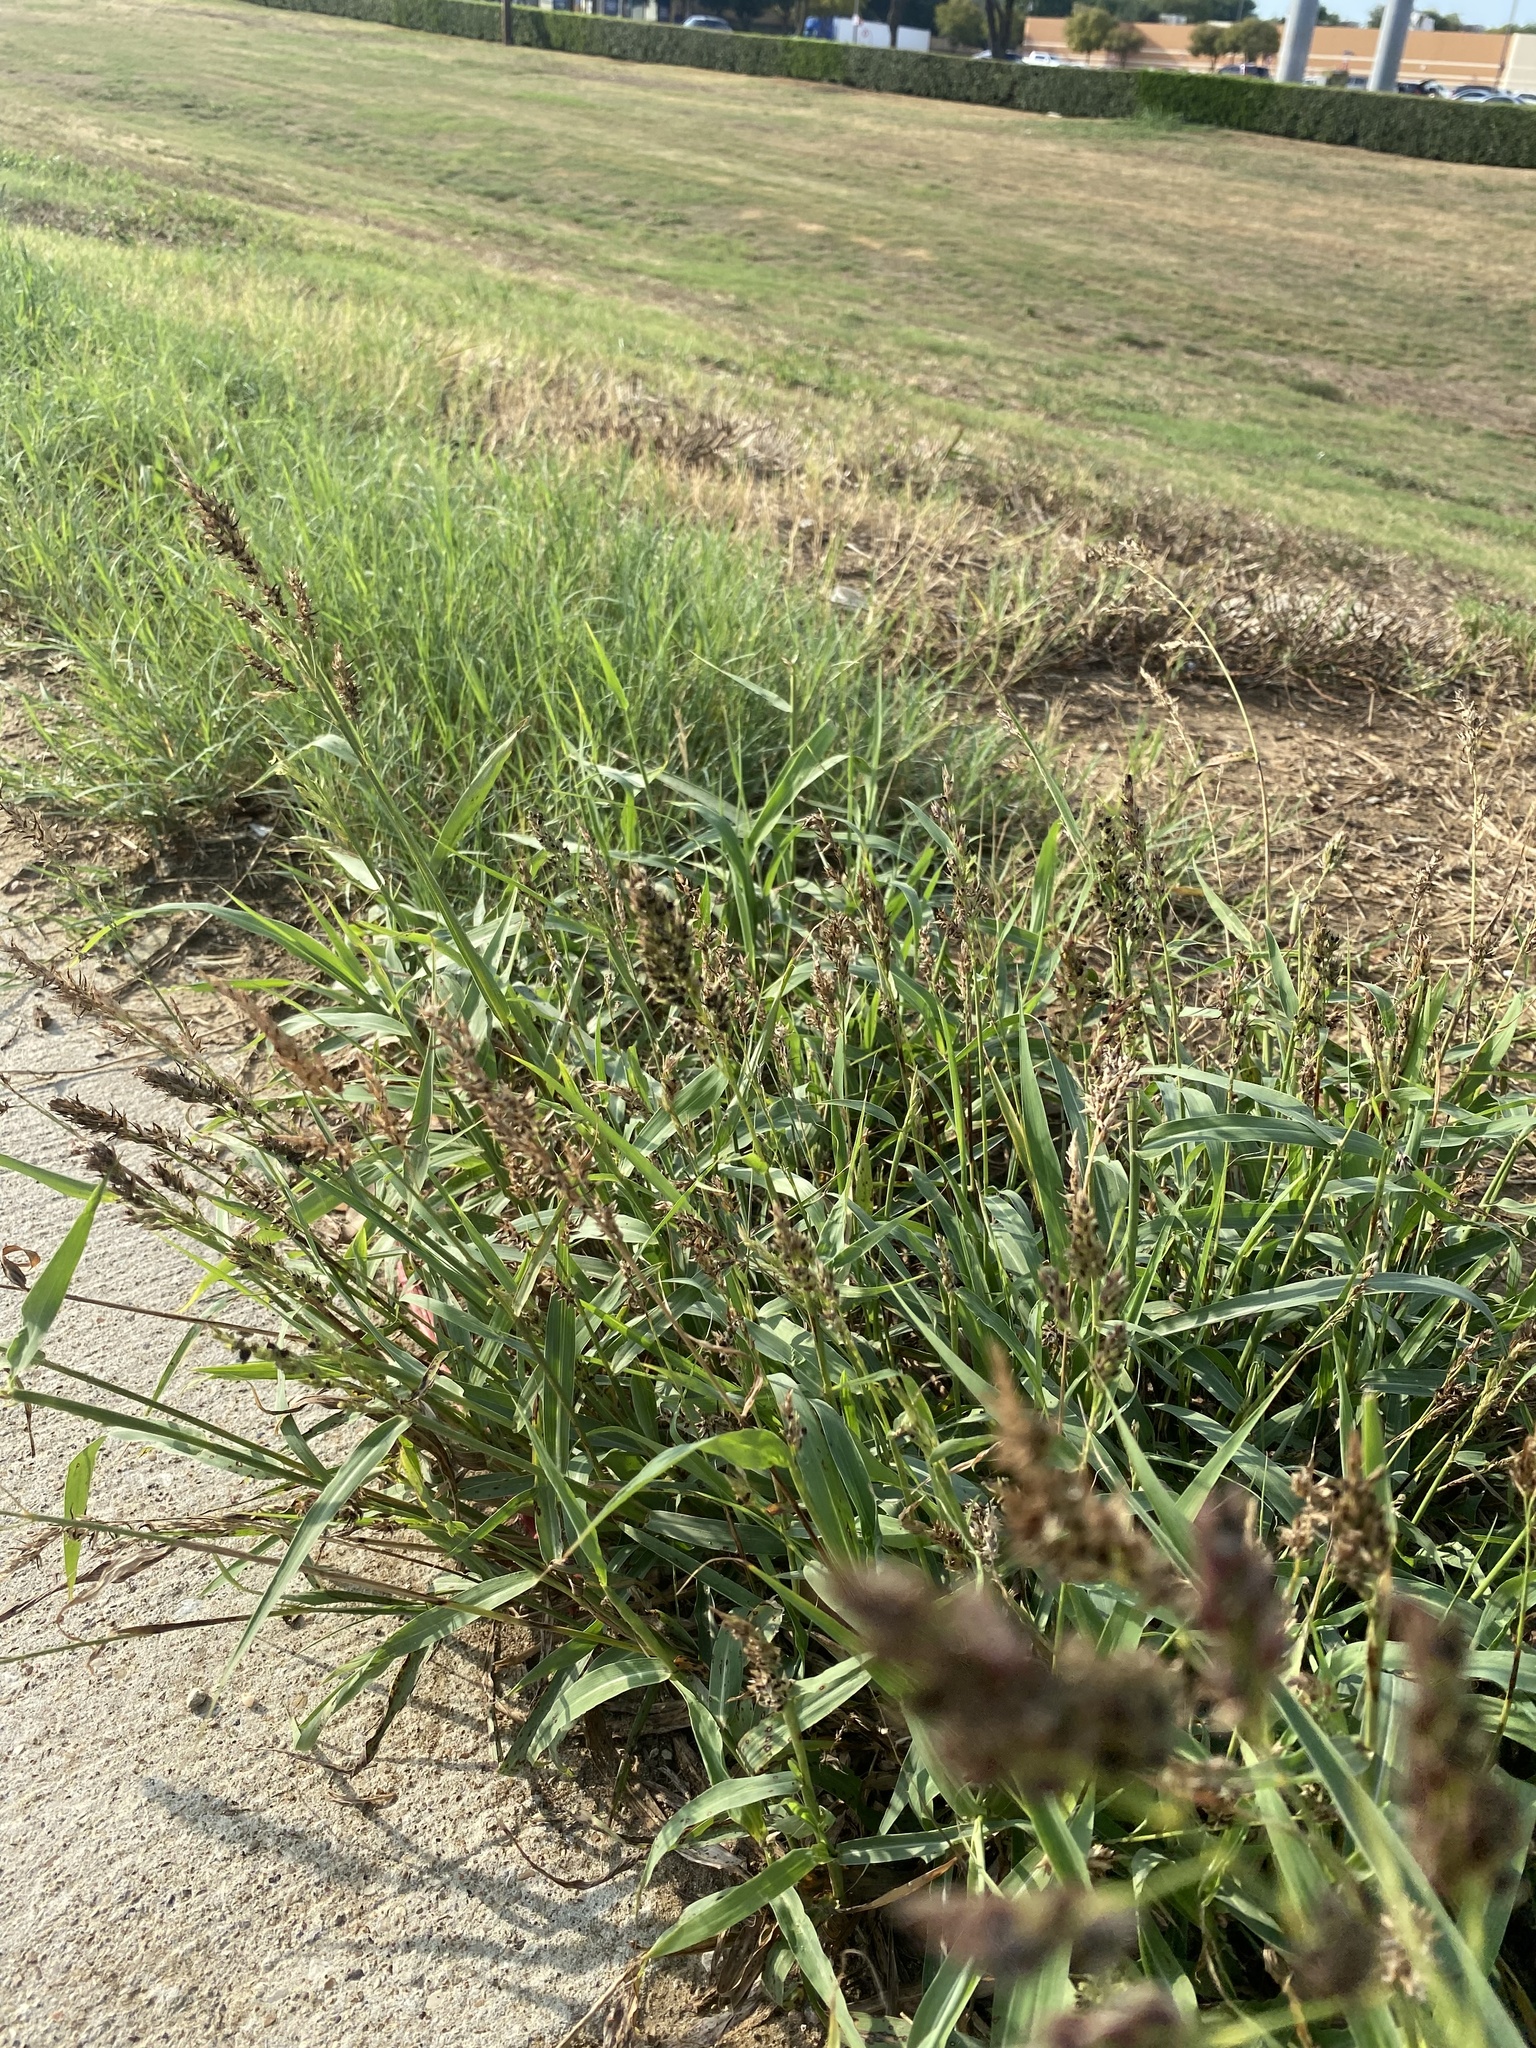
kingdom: Plantae
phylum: Tracheophyta
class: Liliopsida
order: Poales
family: Poaceae
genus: Sorghum
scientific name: Sorghum halepense
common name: Johnson-grass
